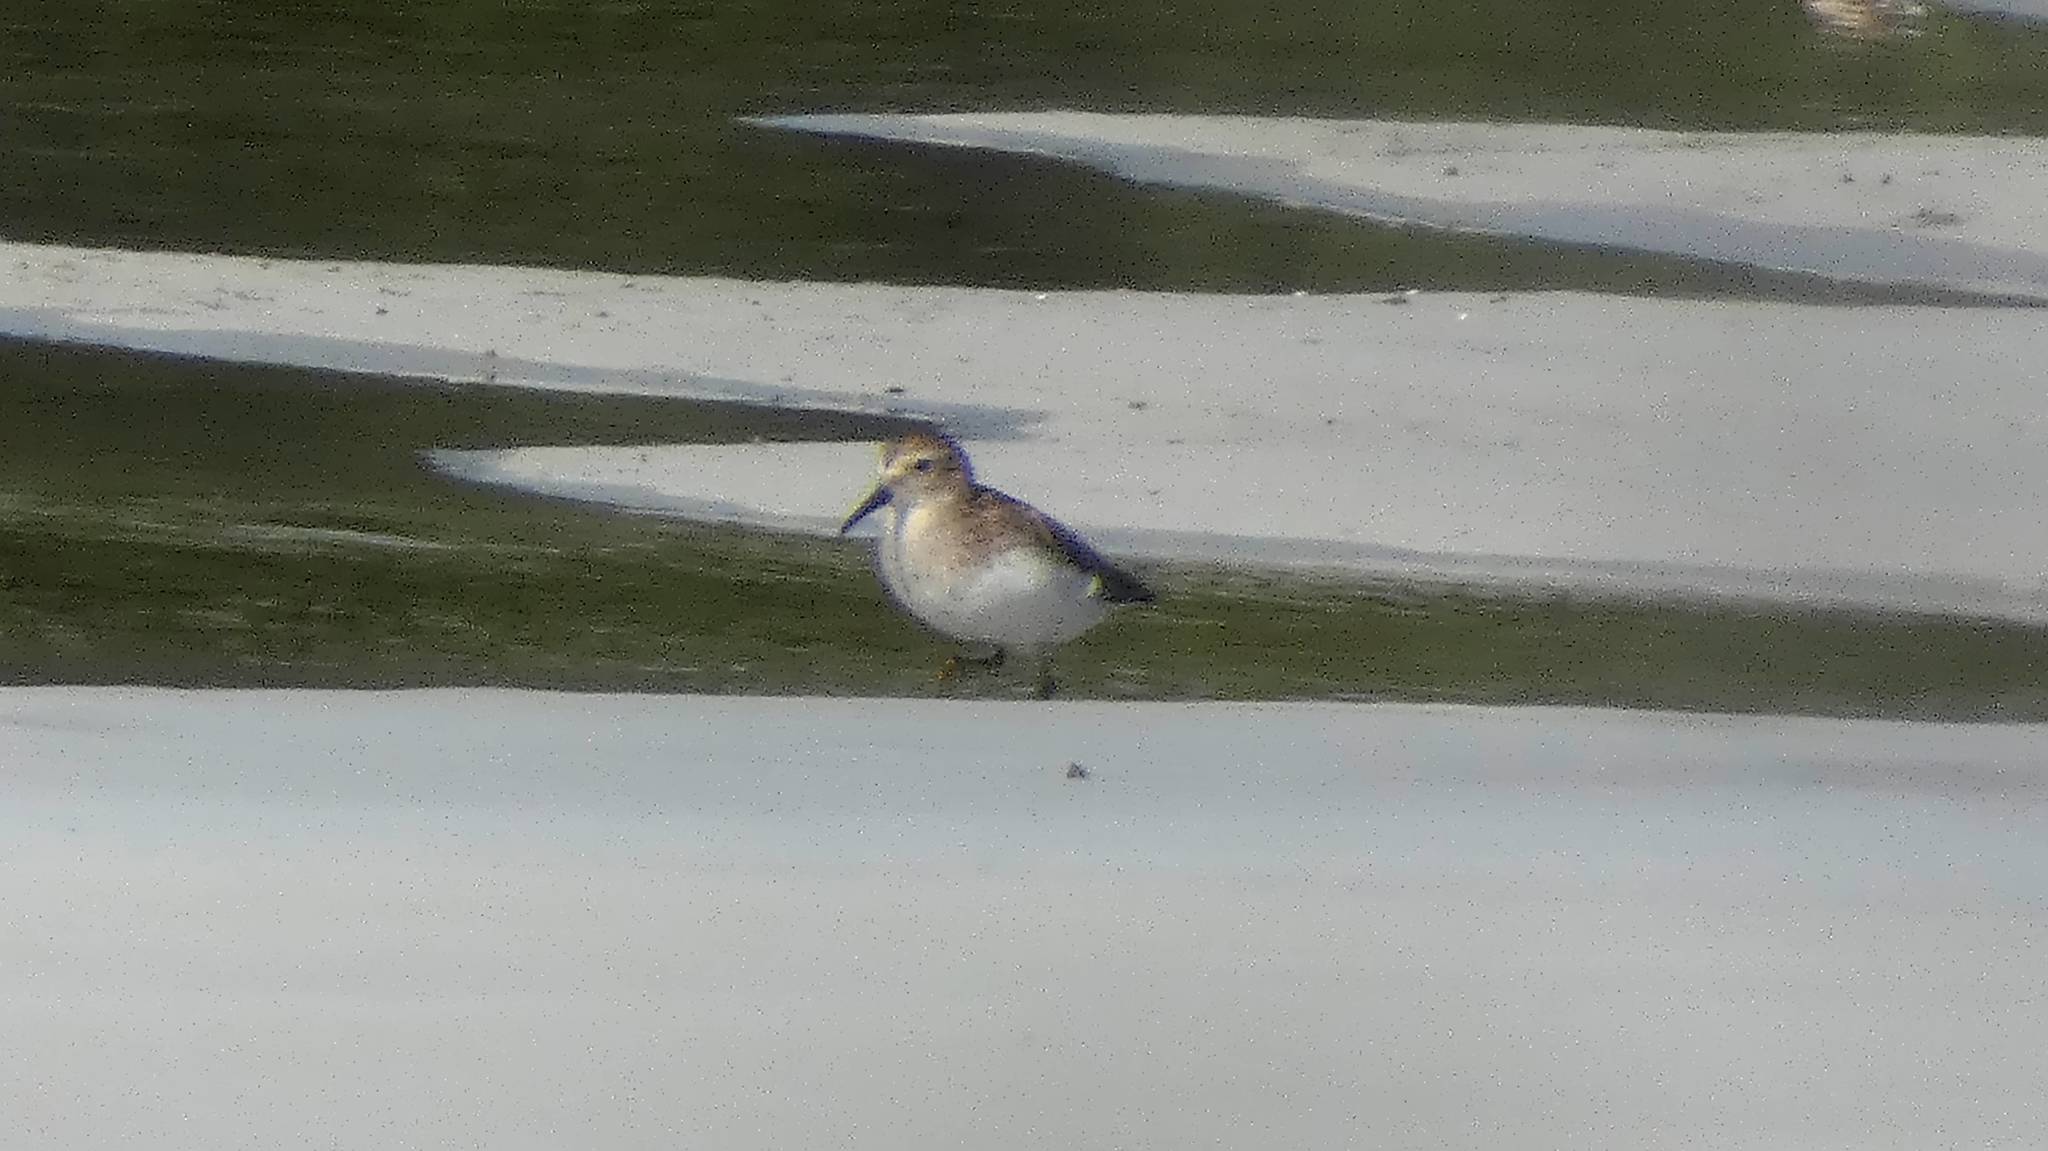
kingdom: Animalia
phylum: Chordata
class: Aves
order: Charadriiformes
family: Scolopacidae
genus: Calidris
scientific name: Calidris minutilla
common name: Least sandpiper
